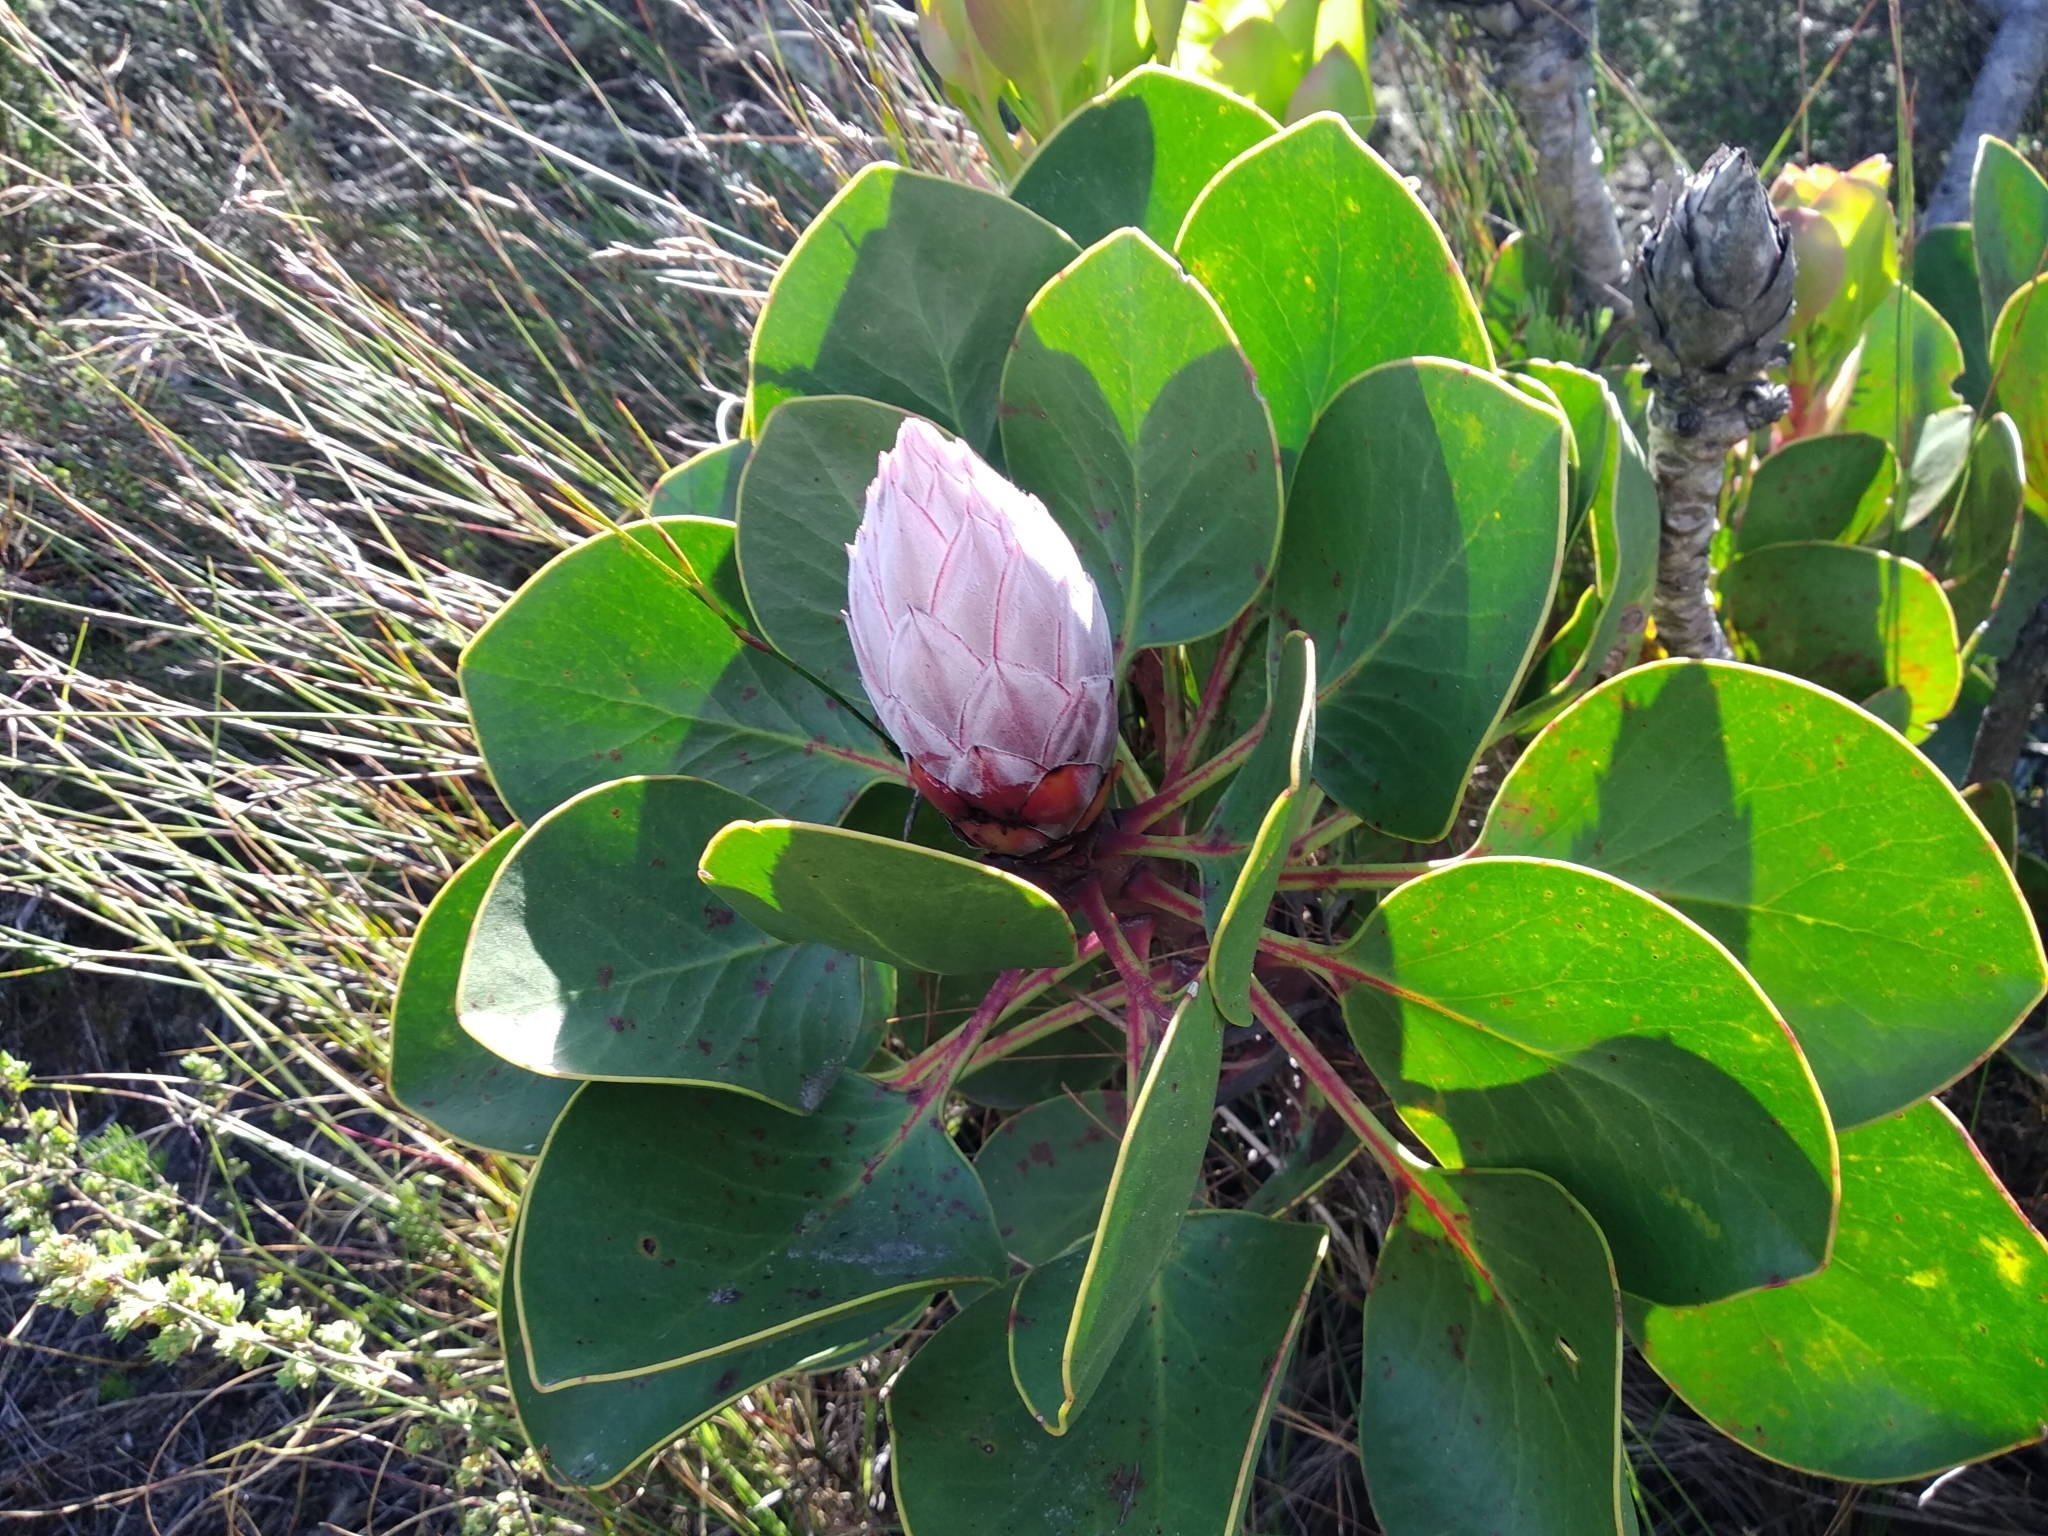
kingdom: Plantae
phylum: Tracheophyta
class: Magnoliopsida
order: Proteales
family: Proteaceae
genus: Protea
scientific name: Protea cynaroides
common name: King protea
